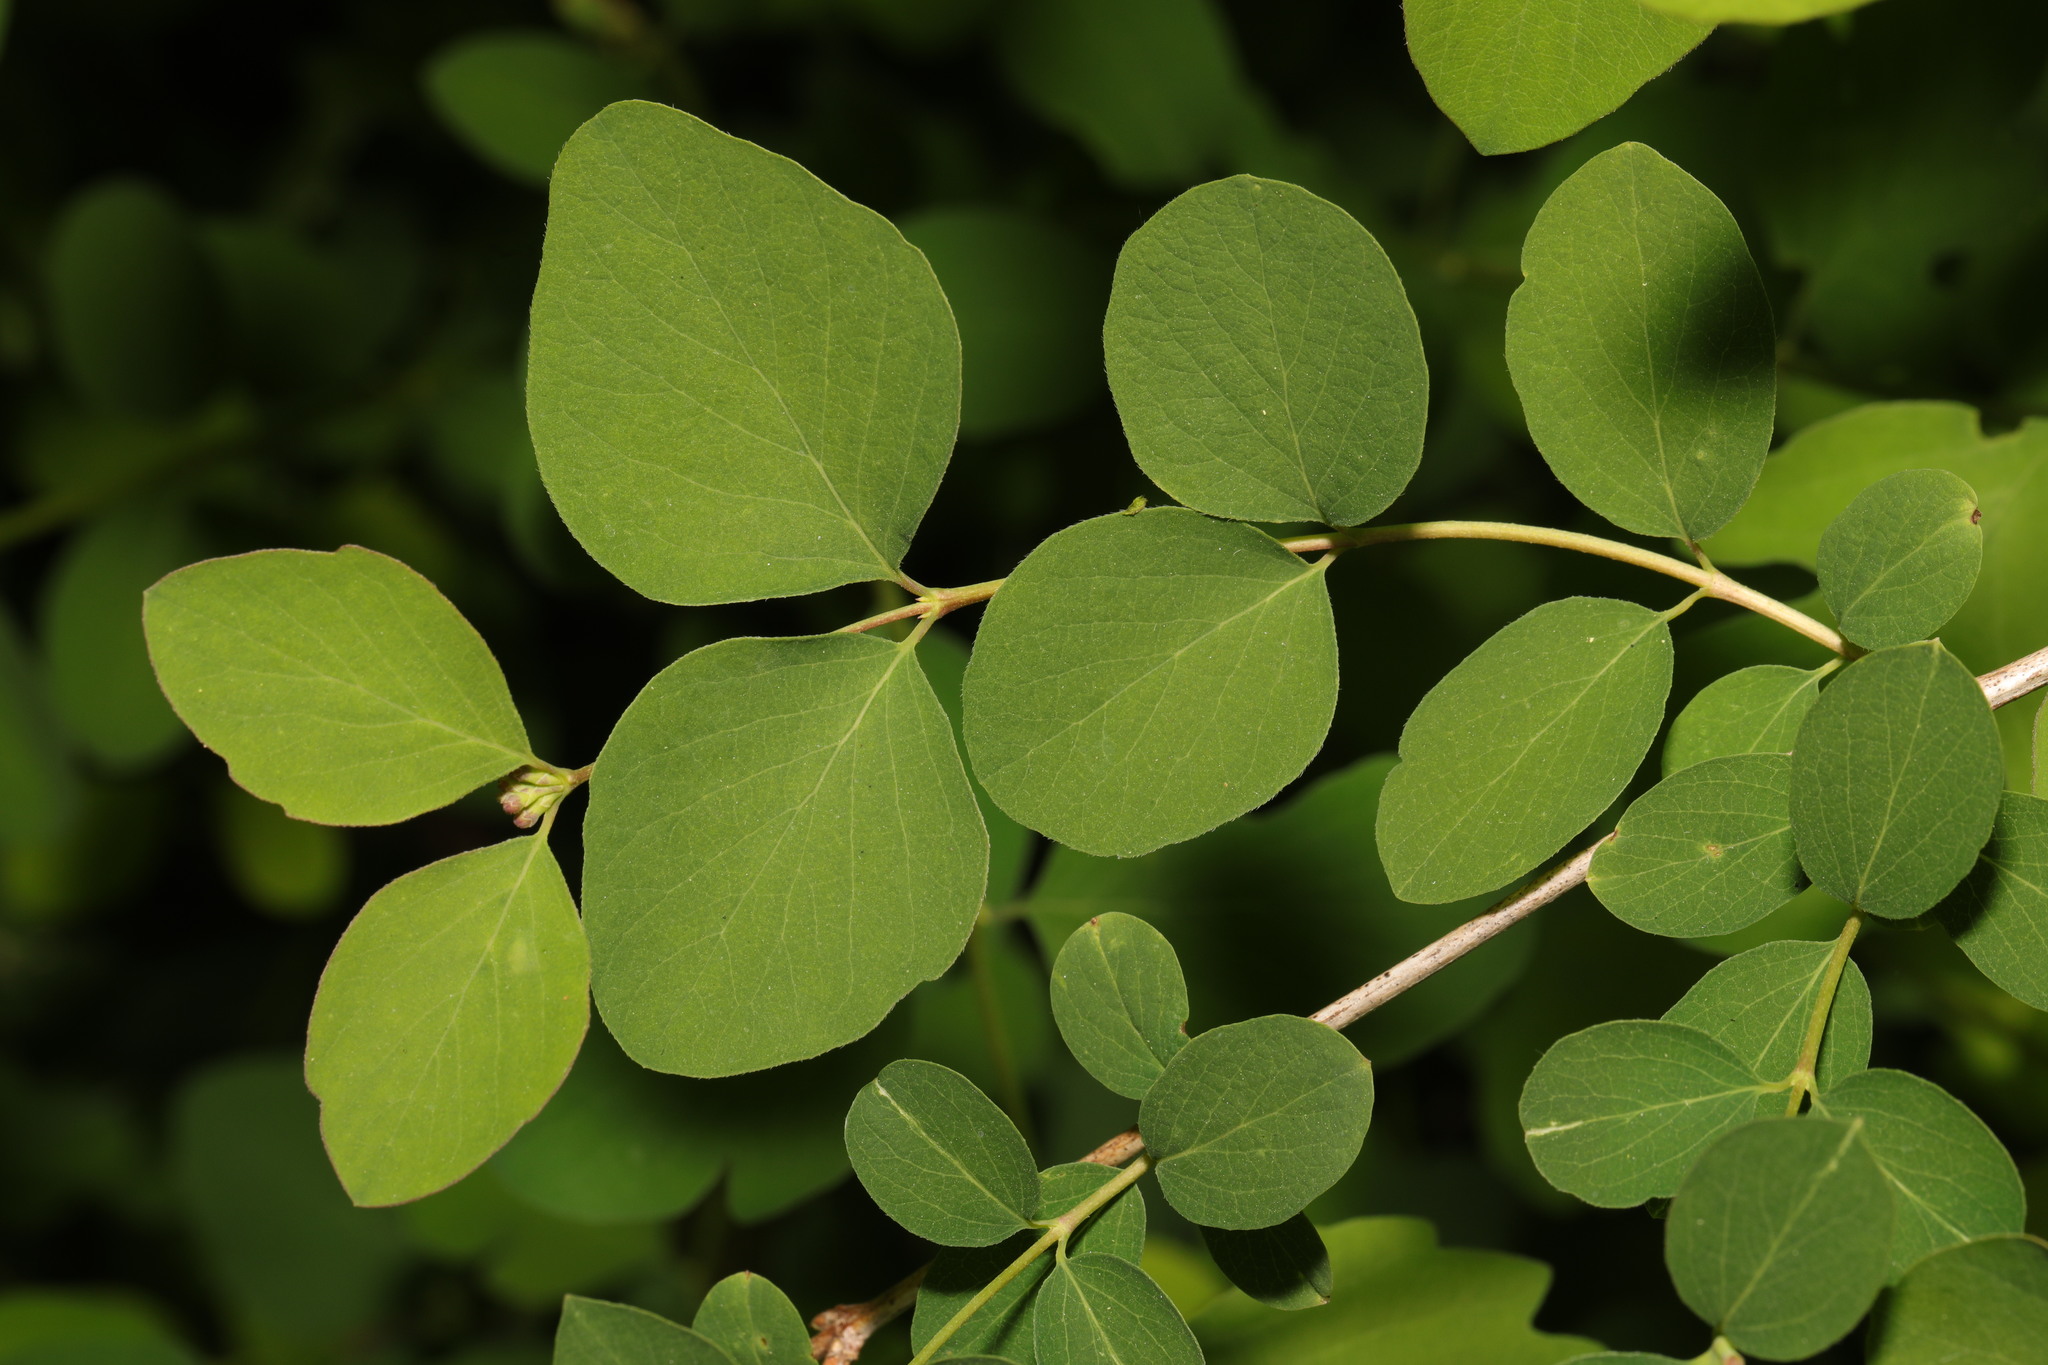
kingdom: Plantae
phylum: Tracheophyta
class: Magnoliopsida
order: Dipsacales
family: Caprifoliaceae
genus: Symphoricarpos
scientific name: Symphoricarpos albus
